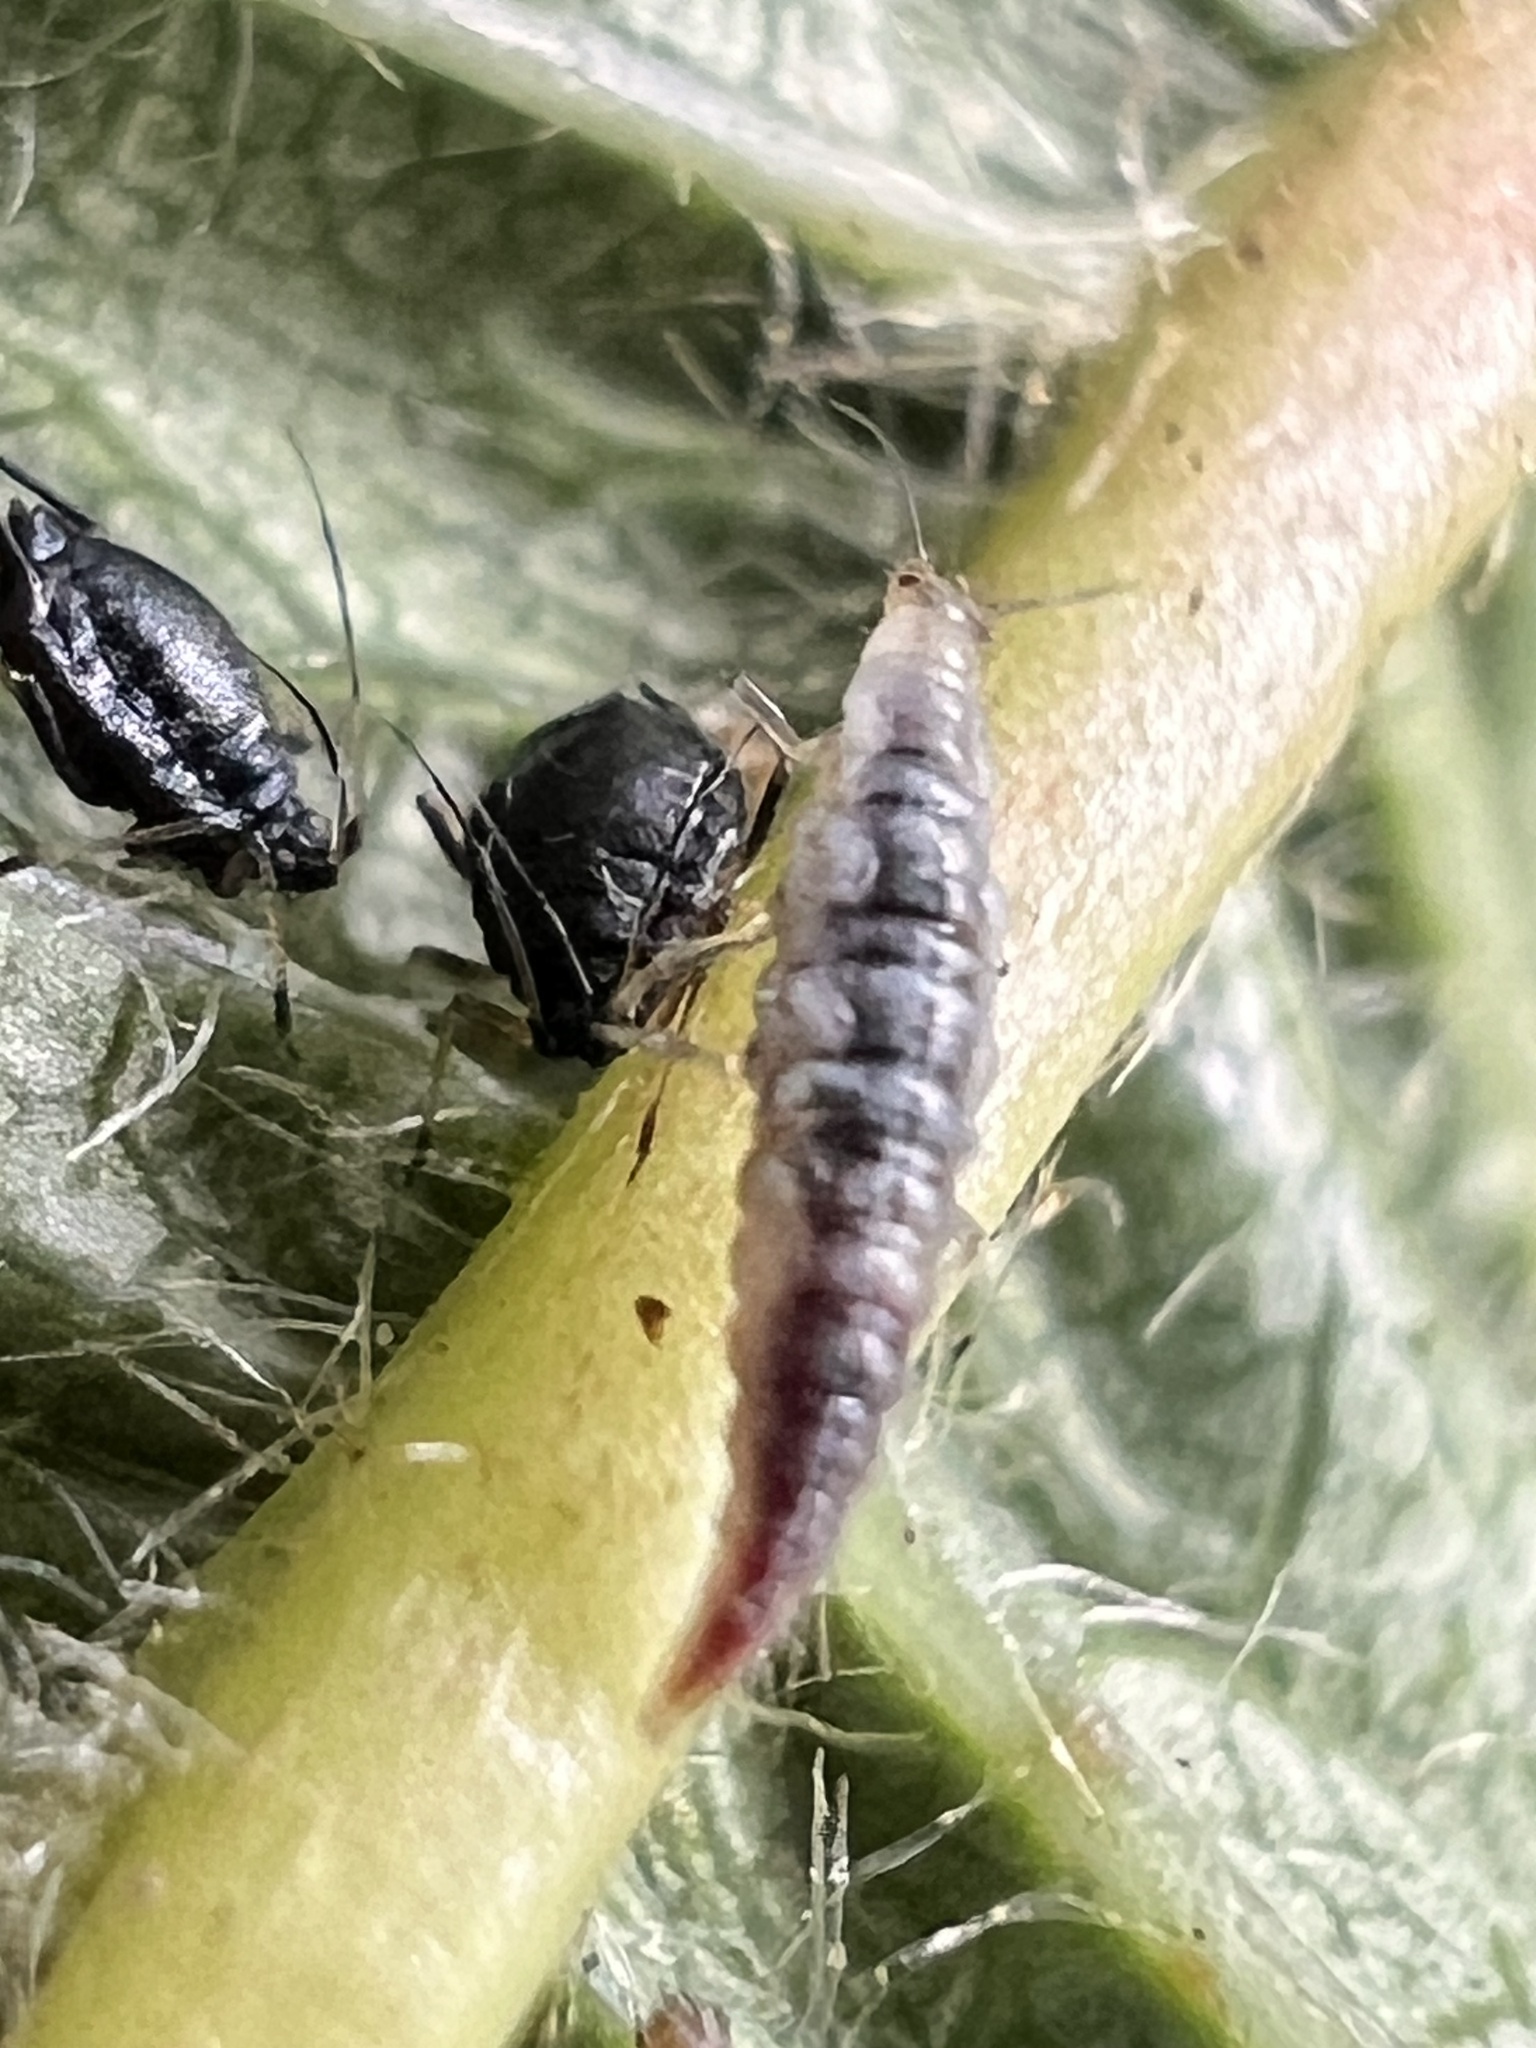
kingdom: Animalia
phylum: Arthropoda
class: Insecta
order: Neuroptera
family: Hemerobiidae
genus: Micromus
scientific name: Micromus tasmaniae
